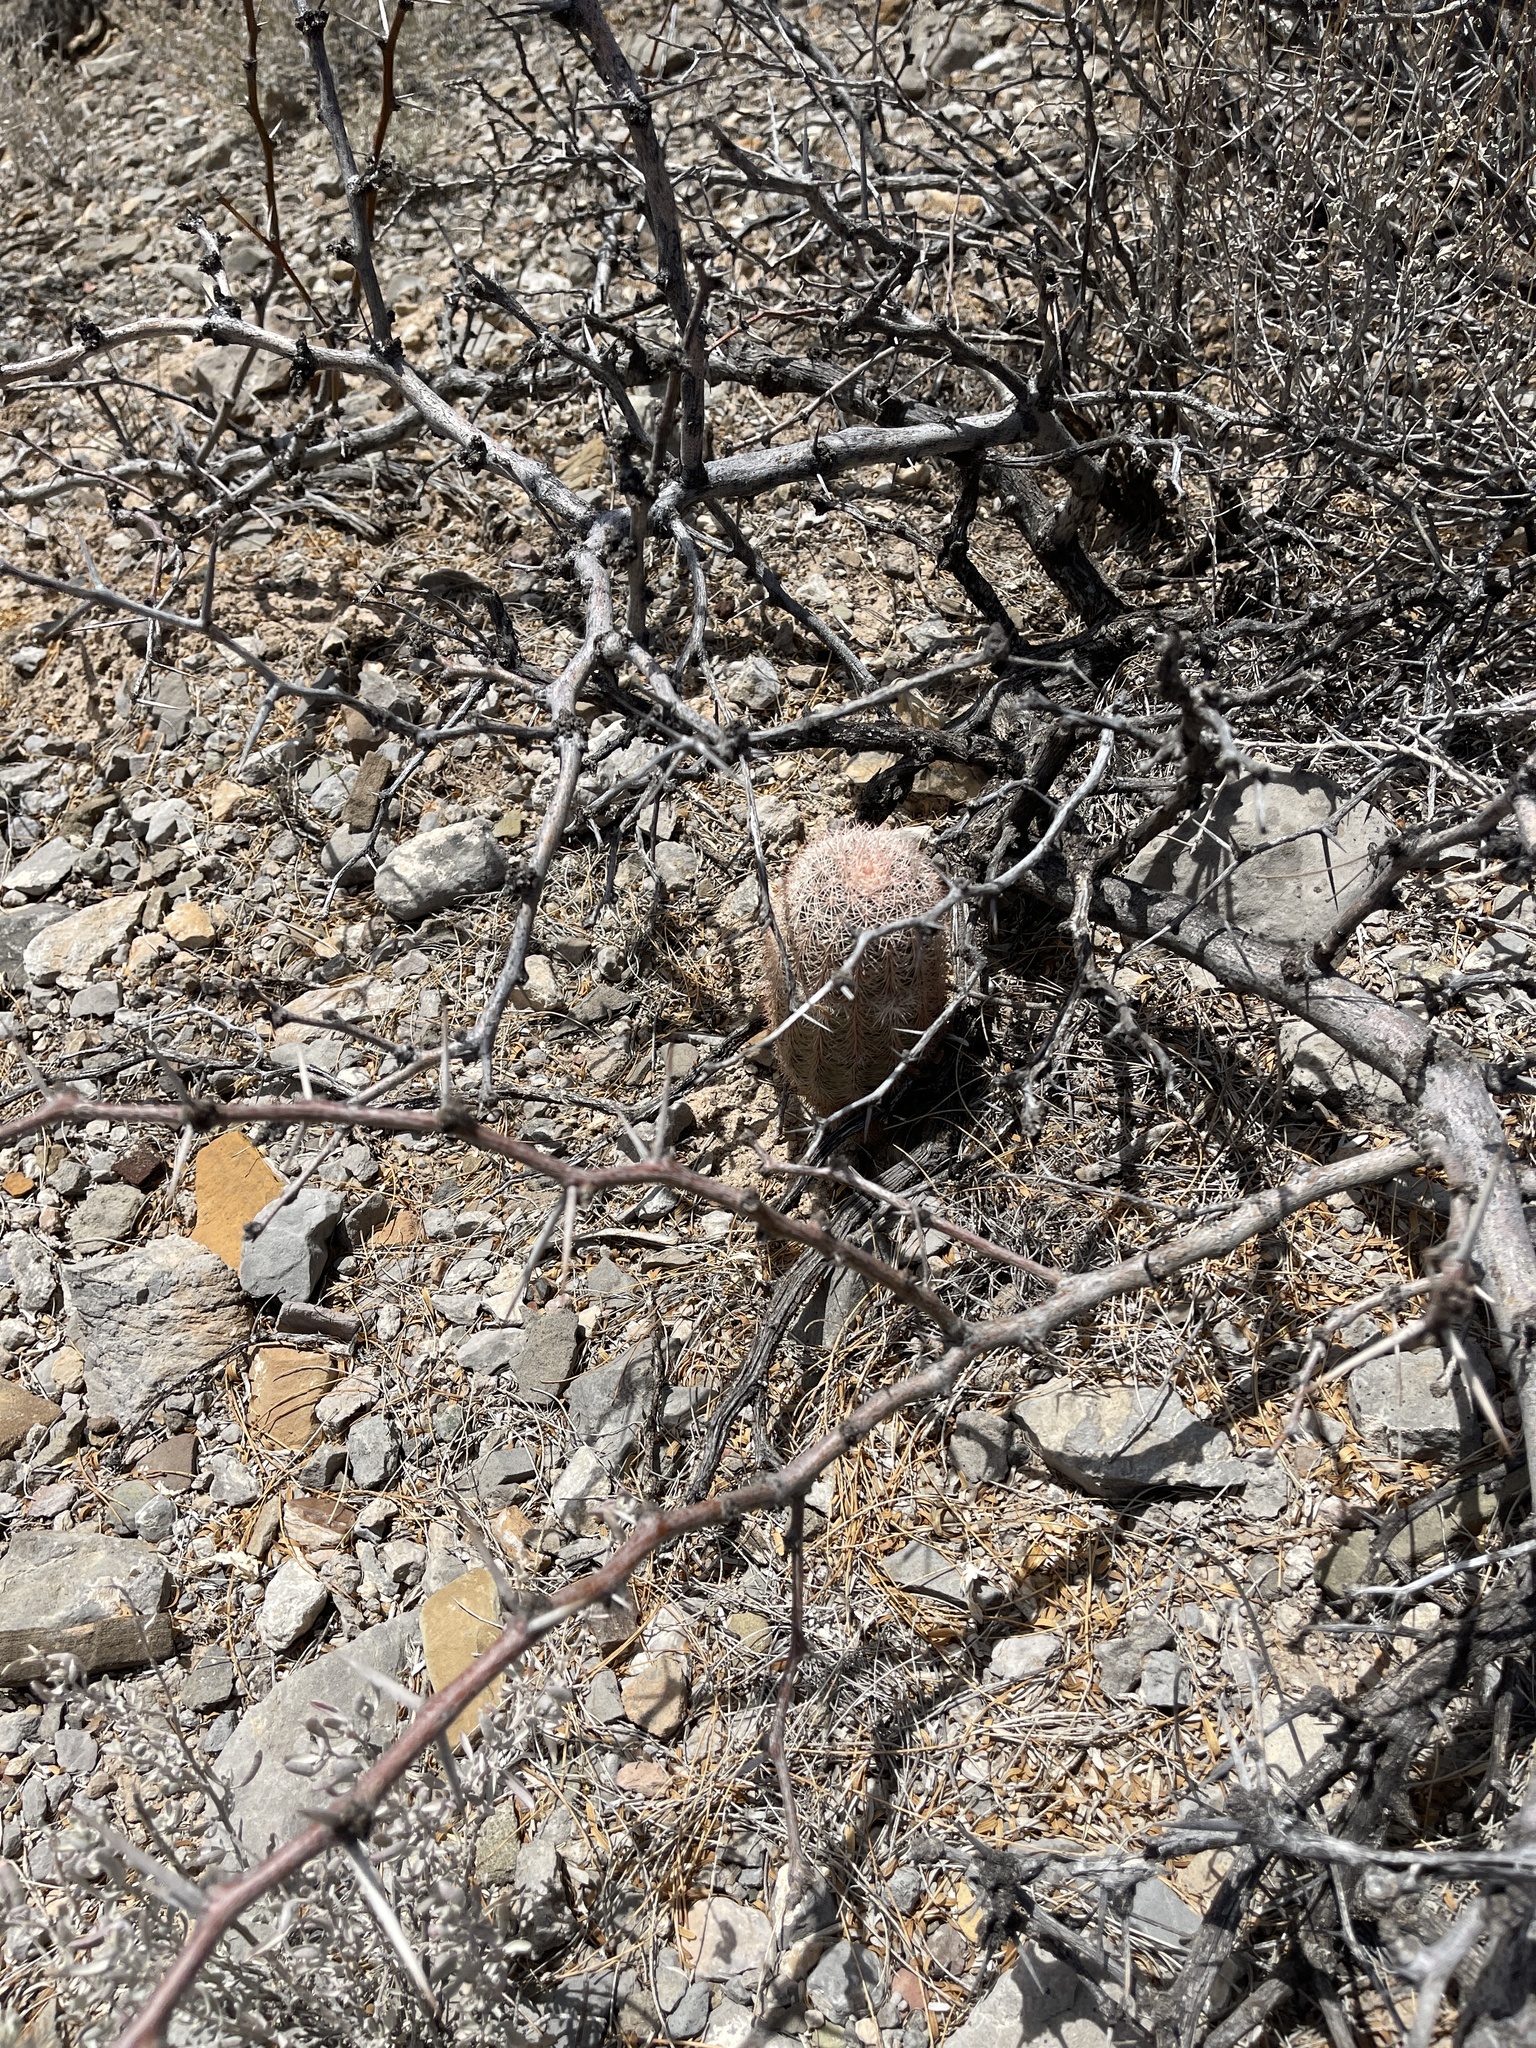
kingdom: Plantae
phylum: Tracheophyta
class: Magnoliopsida
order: Caryophyllales
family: Cactaceae
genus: Echinocereus
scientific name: Echinocereus dasyacanthus
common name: Spiny hedgehog cactus
